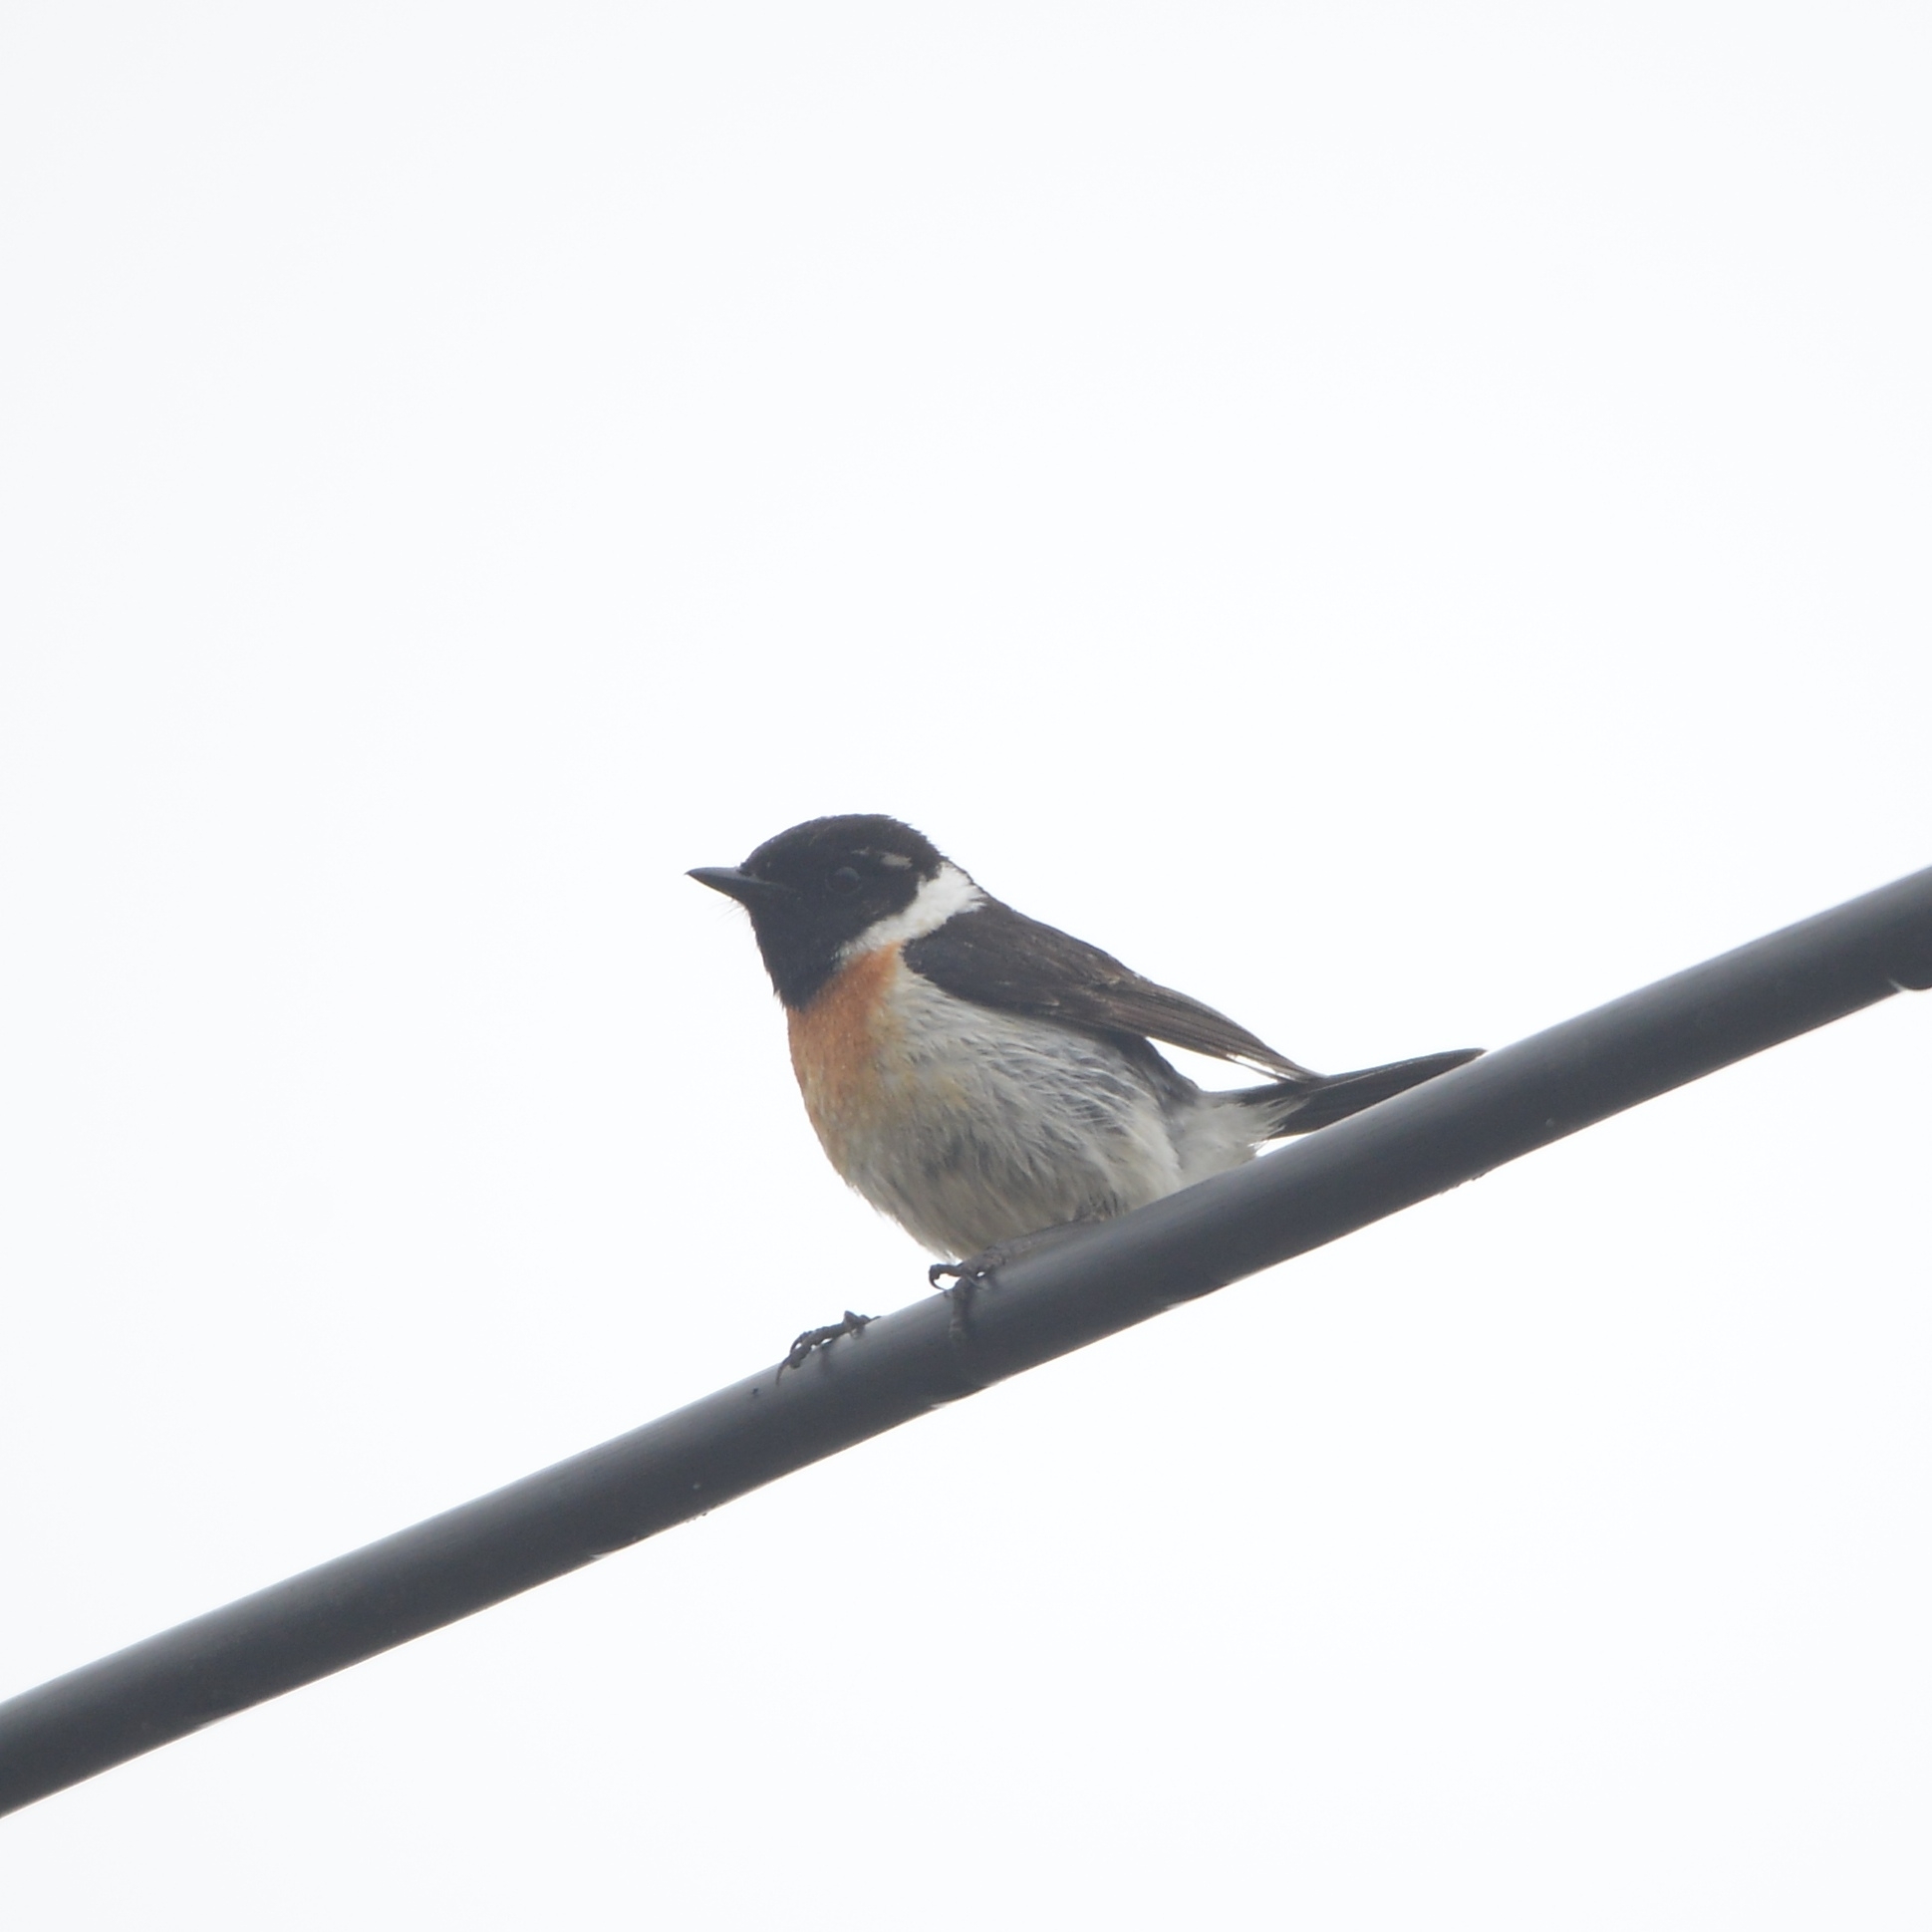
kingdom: Animalia
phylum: Chordata
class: Aves
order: Passeriformes
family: Muscicapidae
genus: Saxicola
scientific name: Saxicola stejnegeri
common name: Stejneger's stonechat
